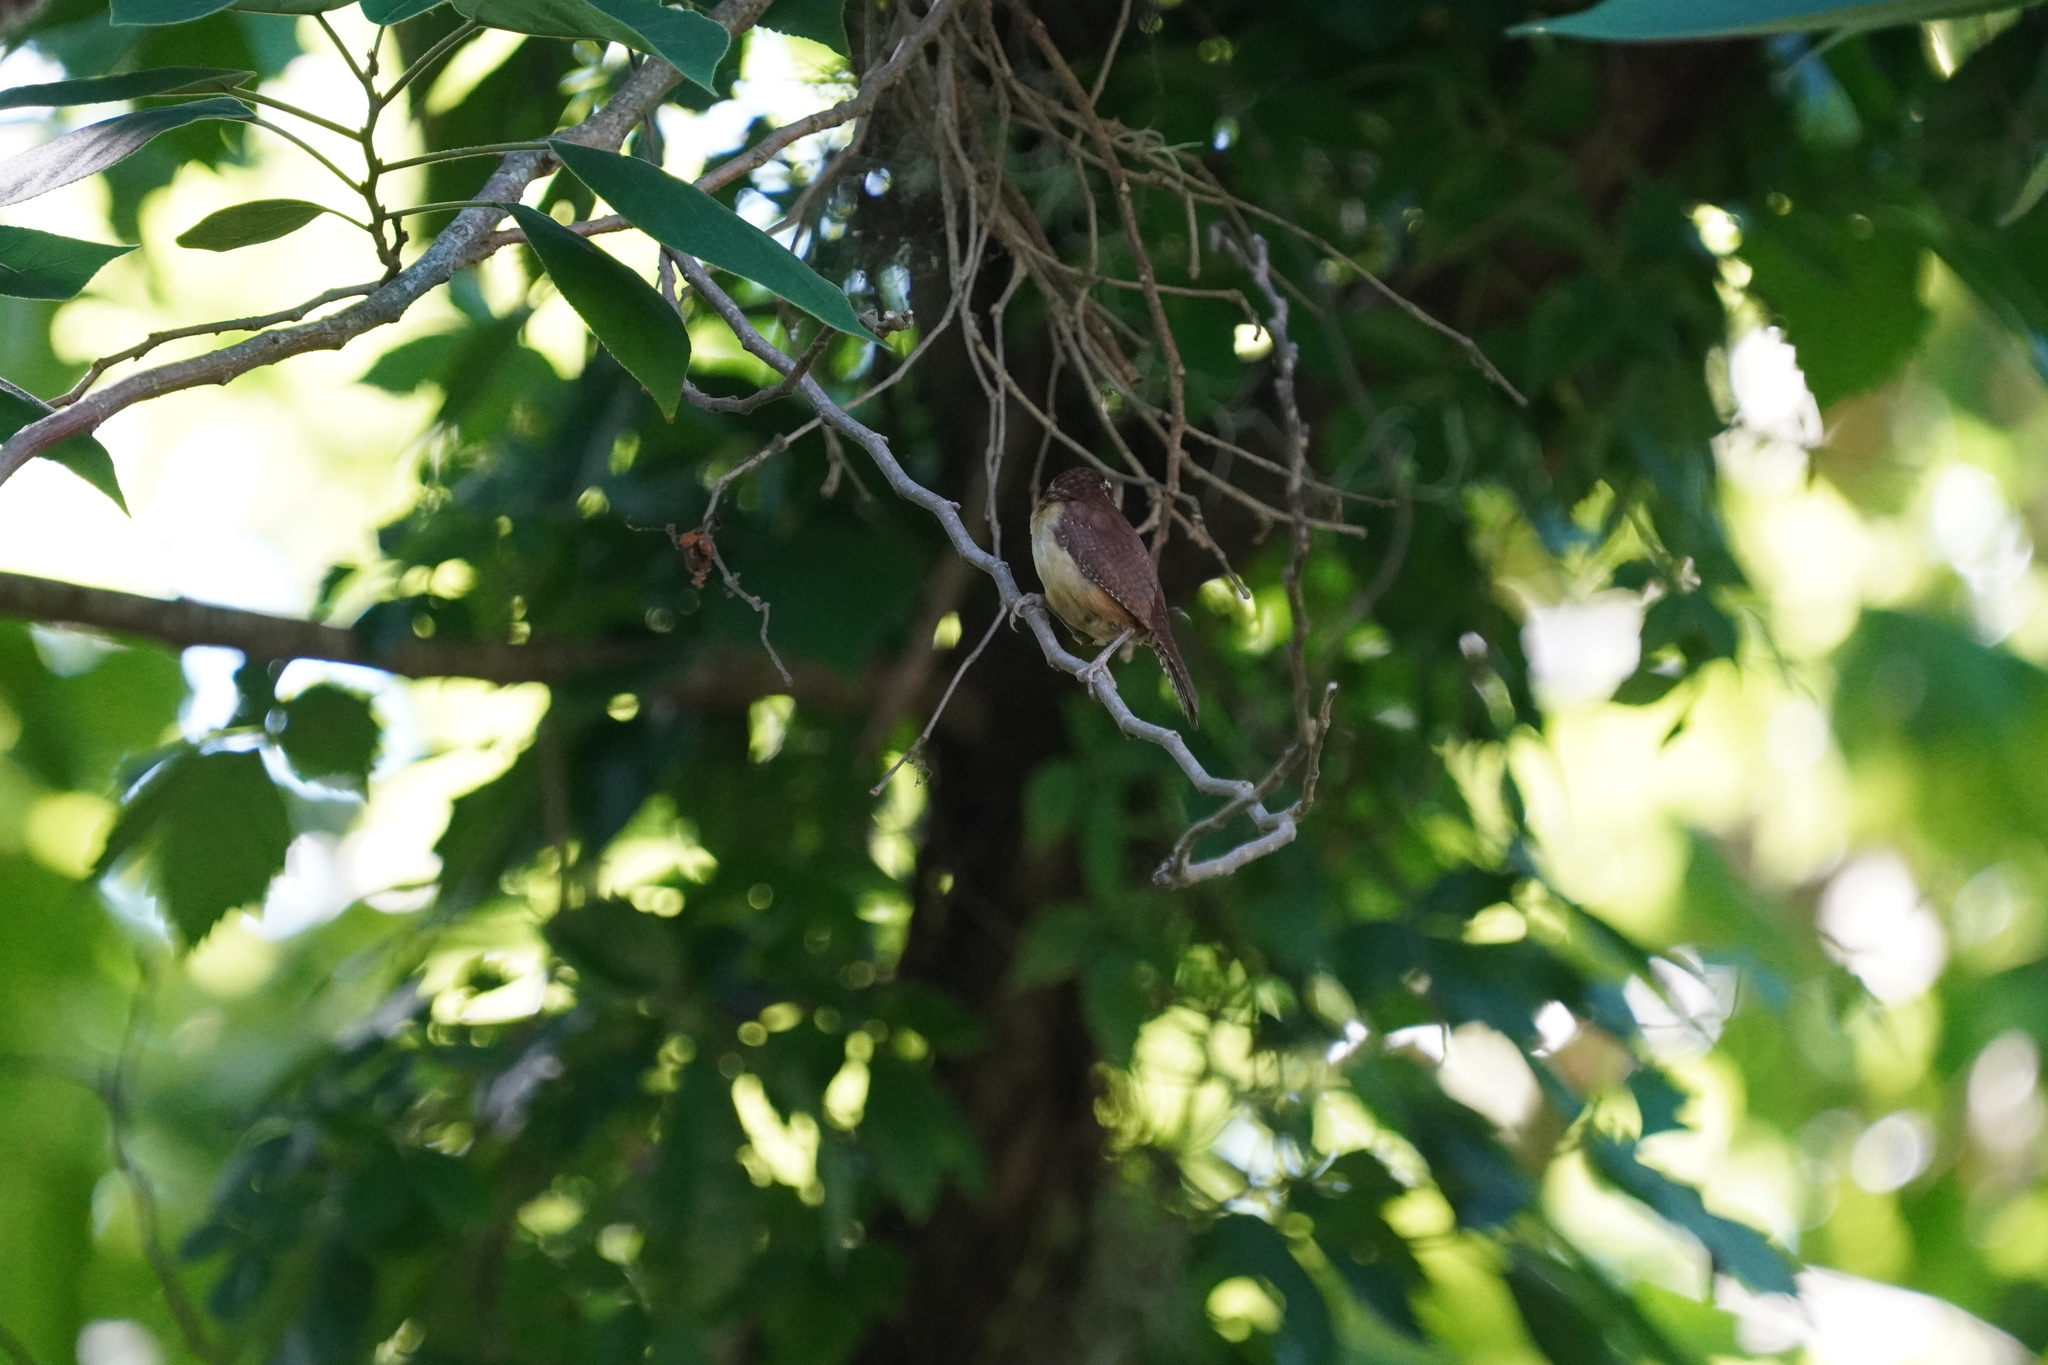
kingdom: Animalia
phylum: Chordata
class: Aves
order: Passeriformes
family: Troglodytidae
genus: Thryothorus
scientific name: Thryothorus ludovicianus
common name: Carolina wren
